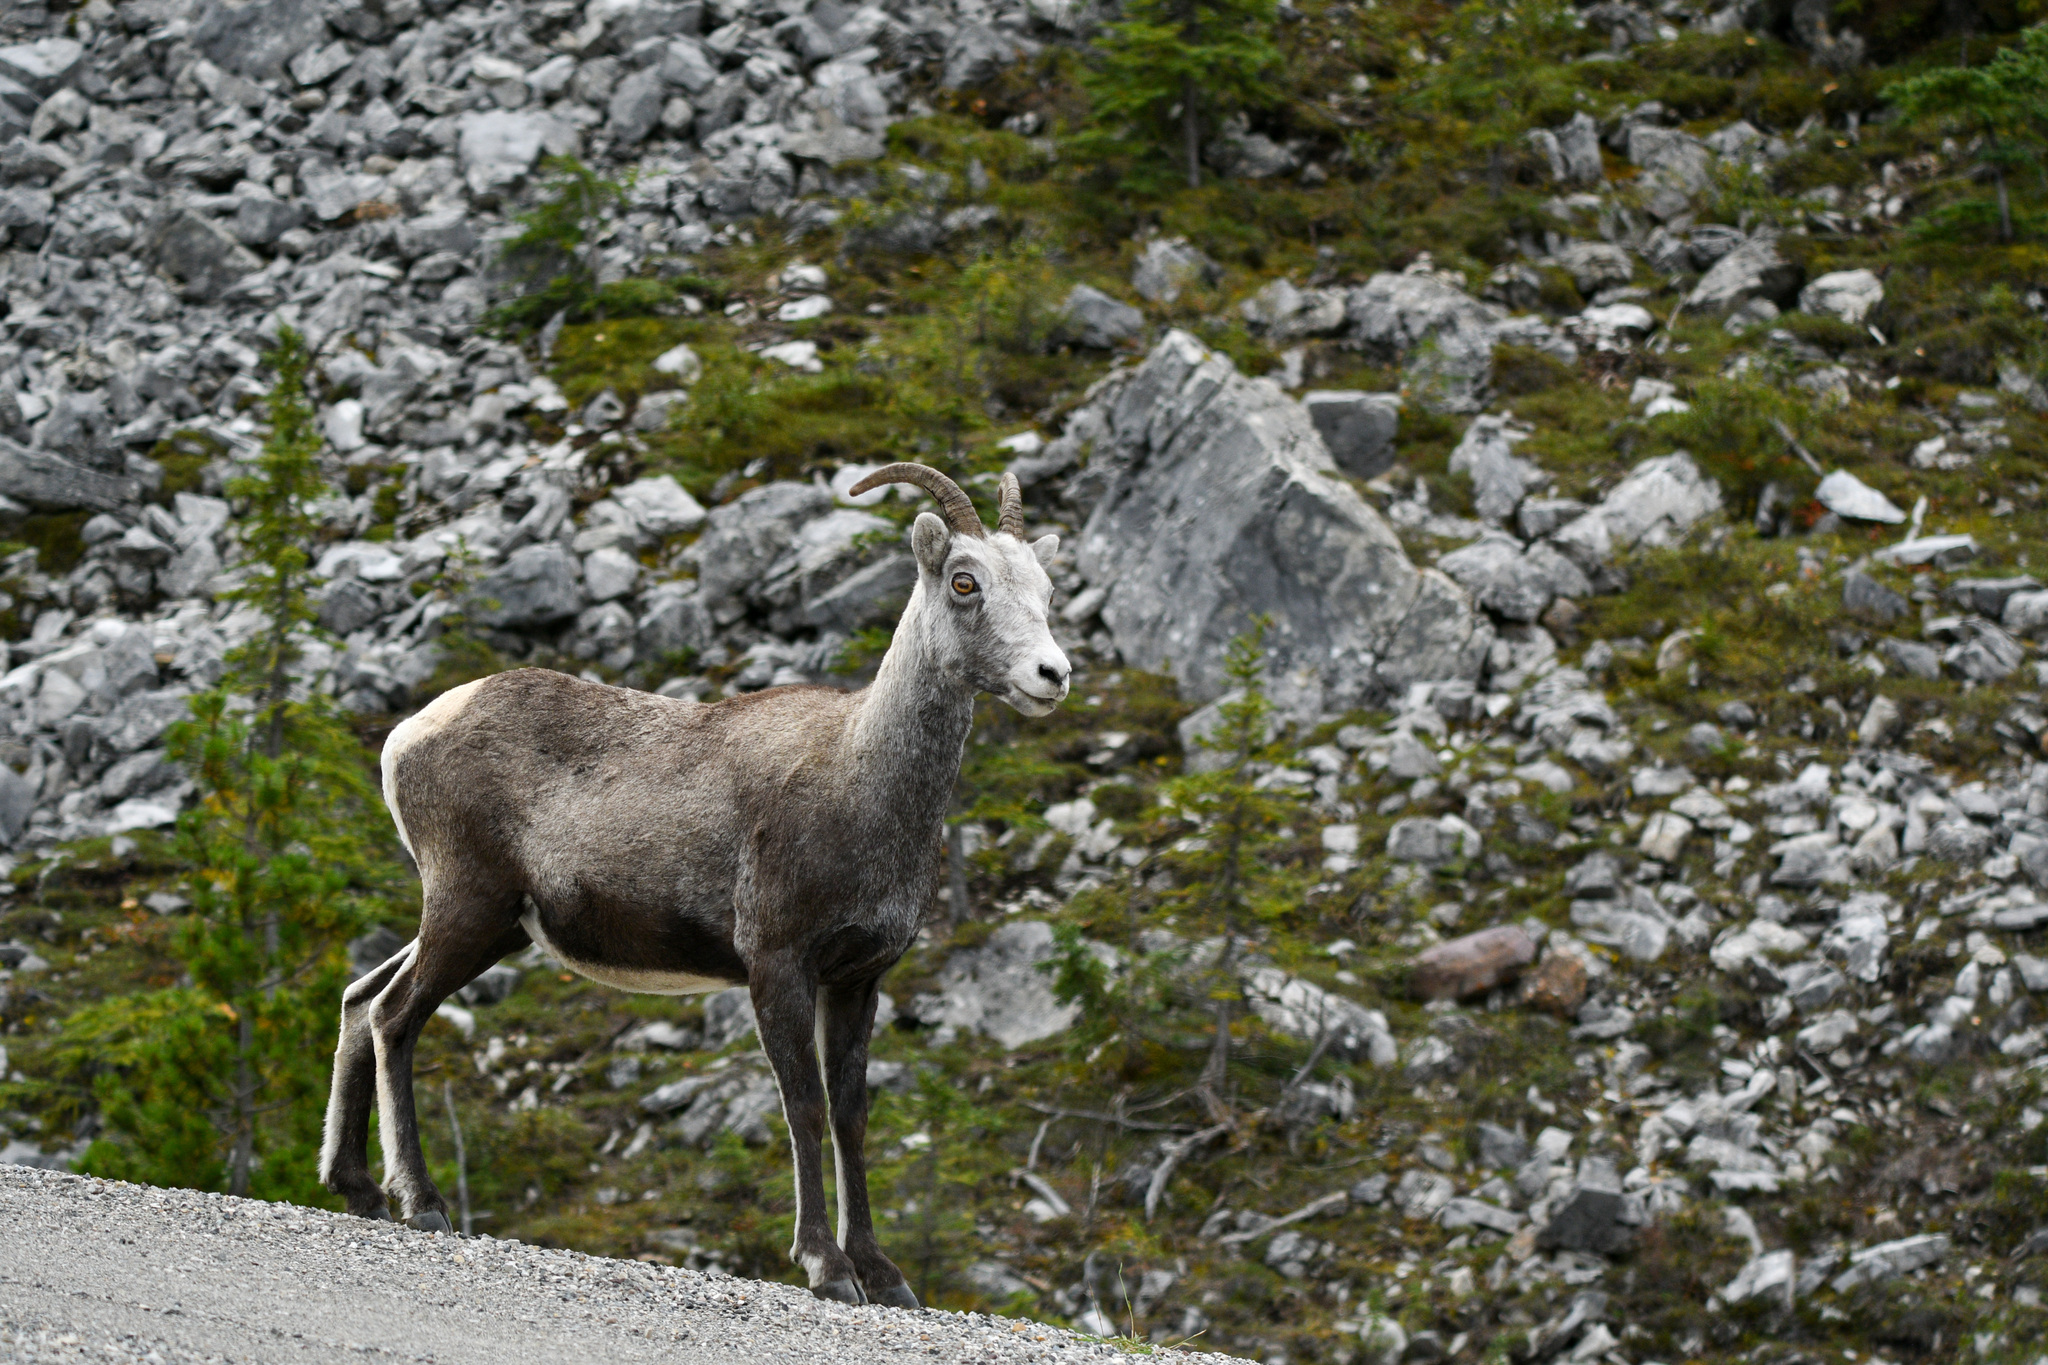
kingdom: Animalia
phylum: Chordata
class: Mammalia
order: Artiodactyla
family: Bovidae
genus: Ovis
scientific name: Ovis dalli
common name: Dall's sheep
